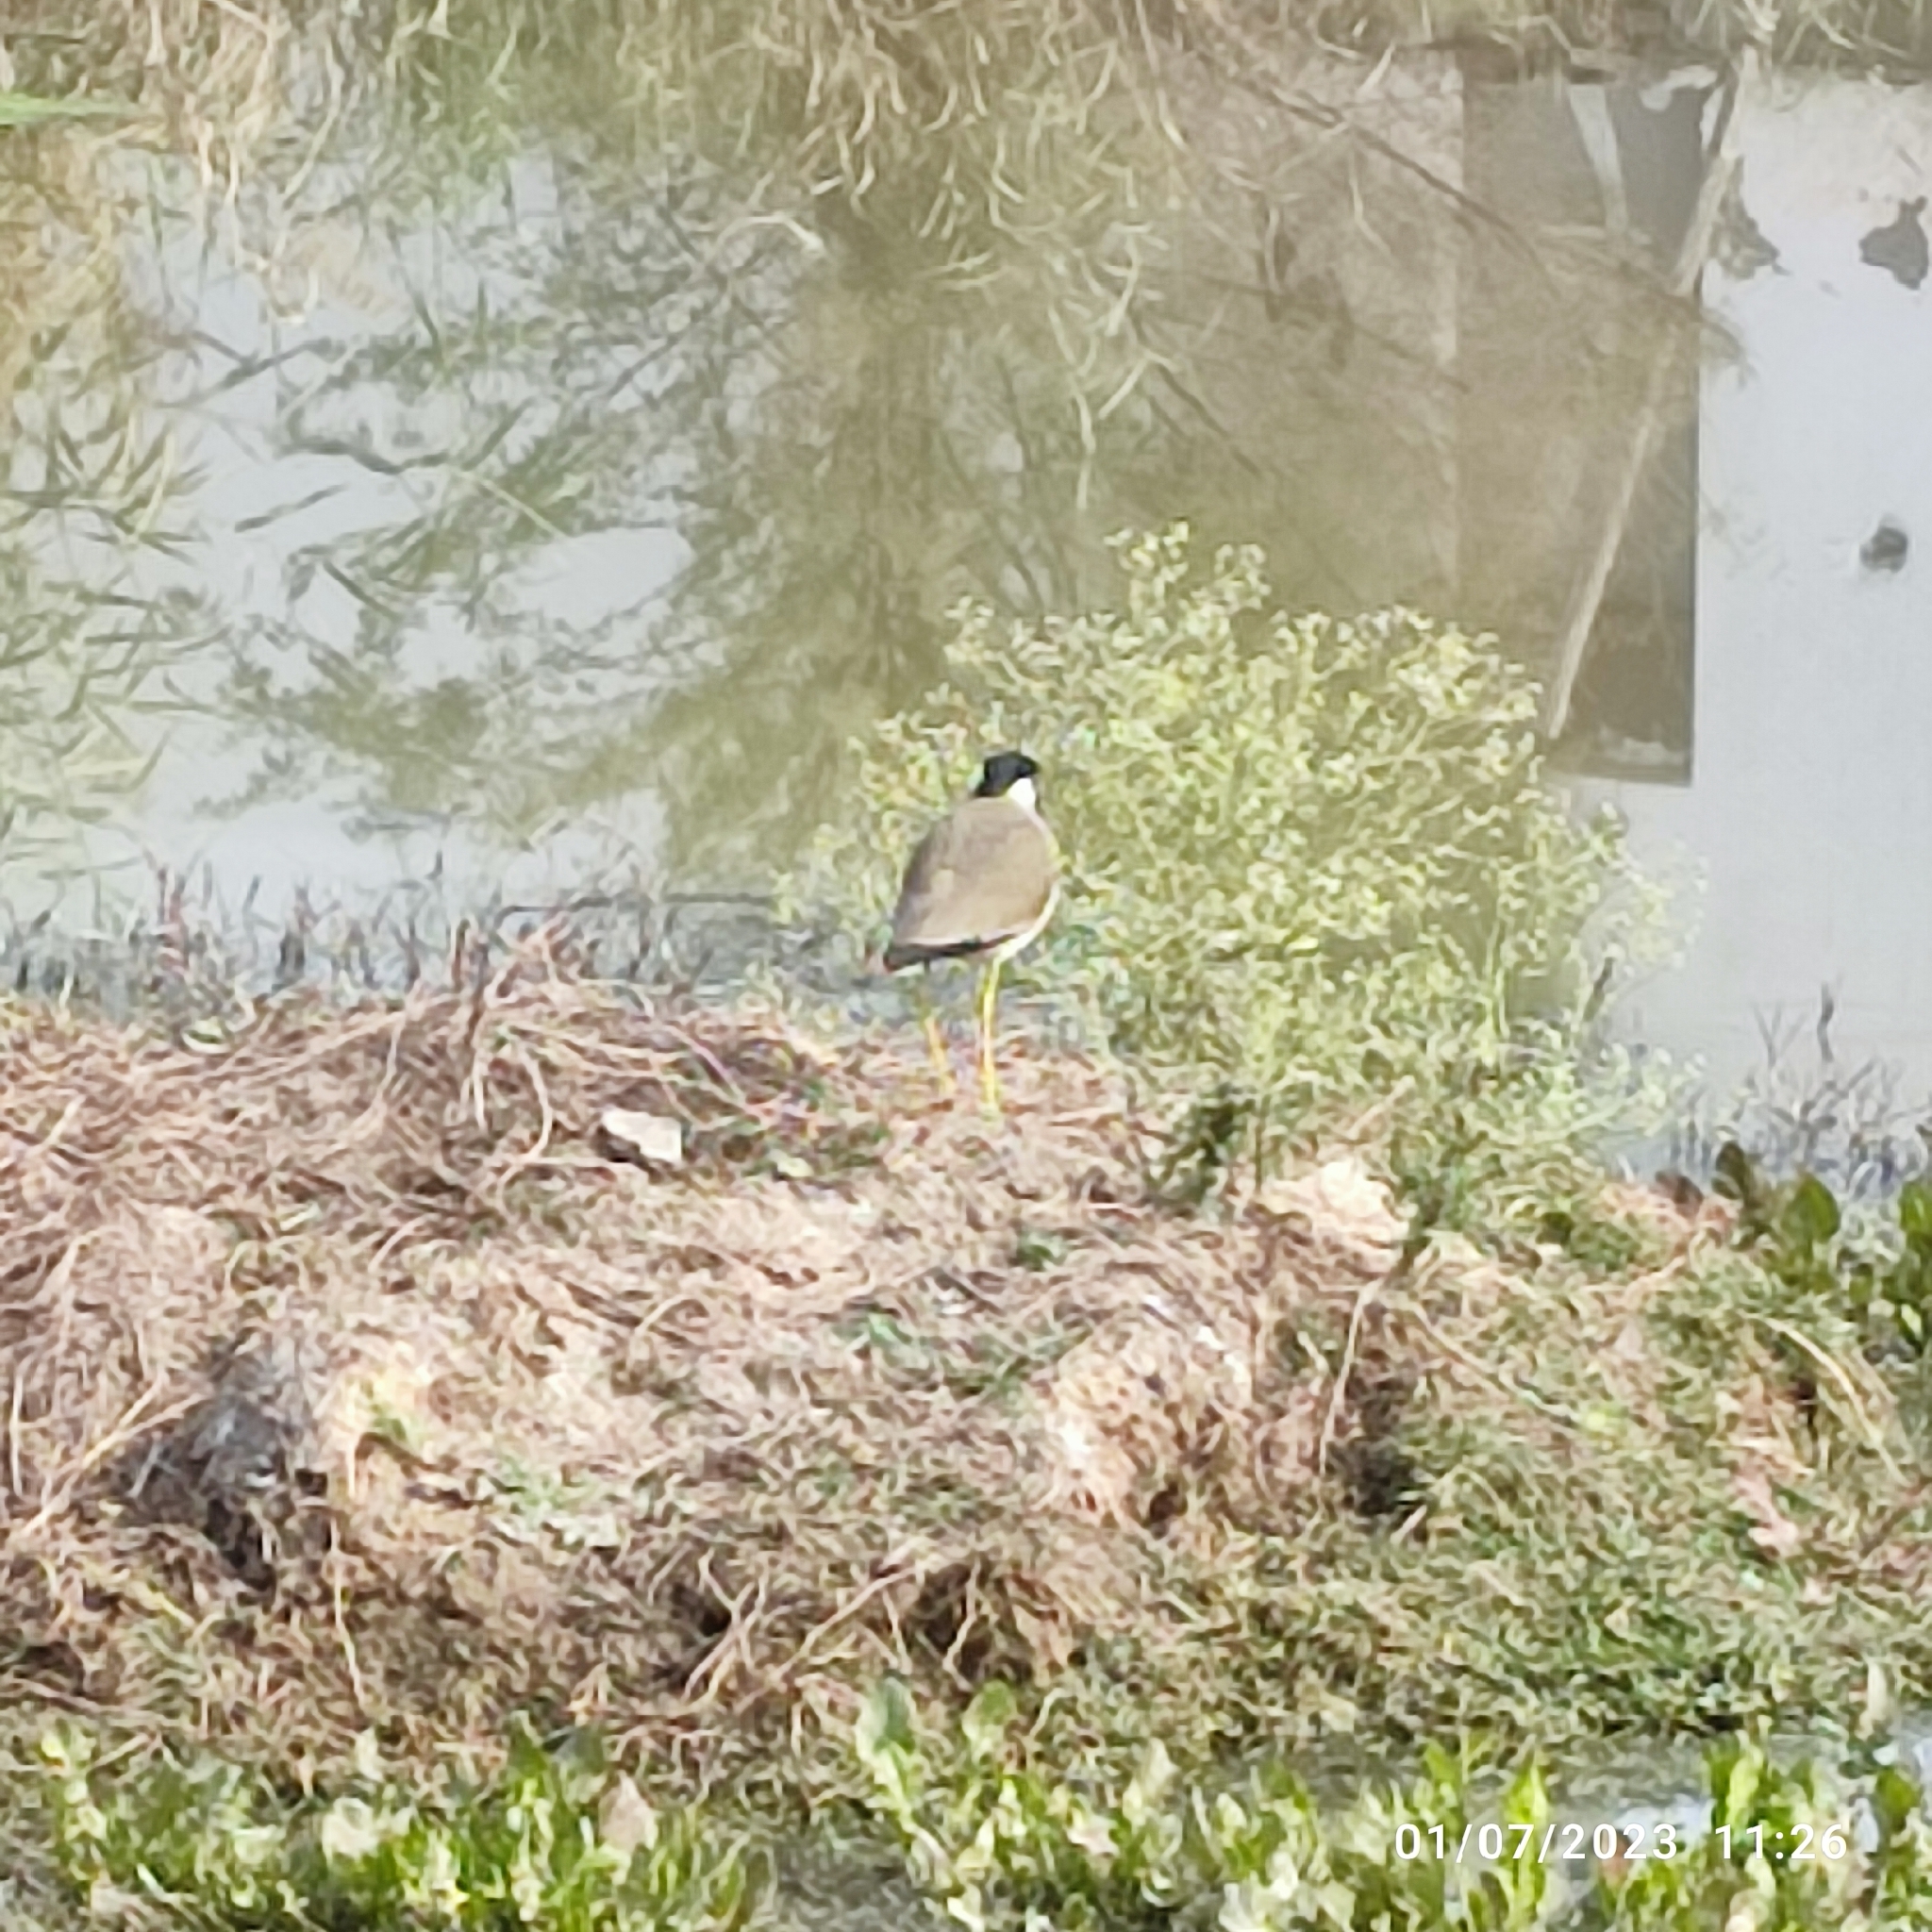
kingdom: Animalia
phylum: Chordata
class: Aves
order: Charadriiformes
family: Charadriidae
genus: Vanellus
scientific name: Vanellus indicus
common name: Red-wattled lapwing
